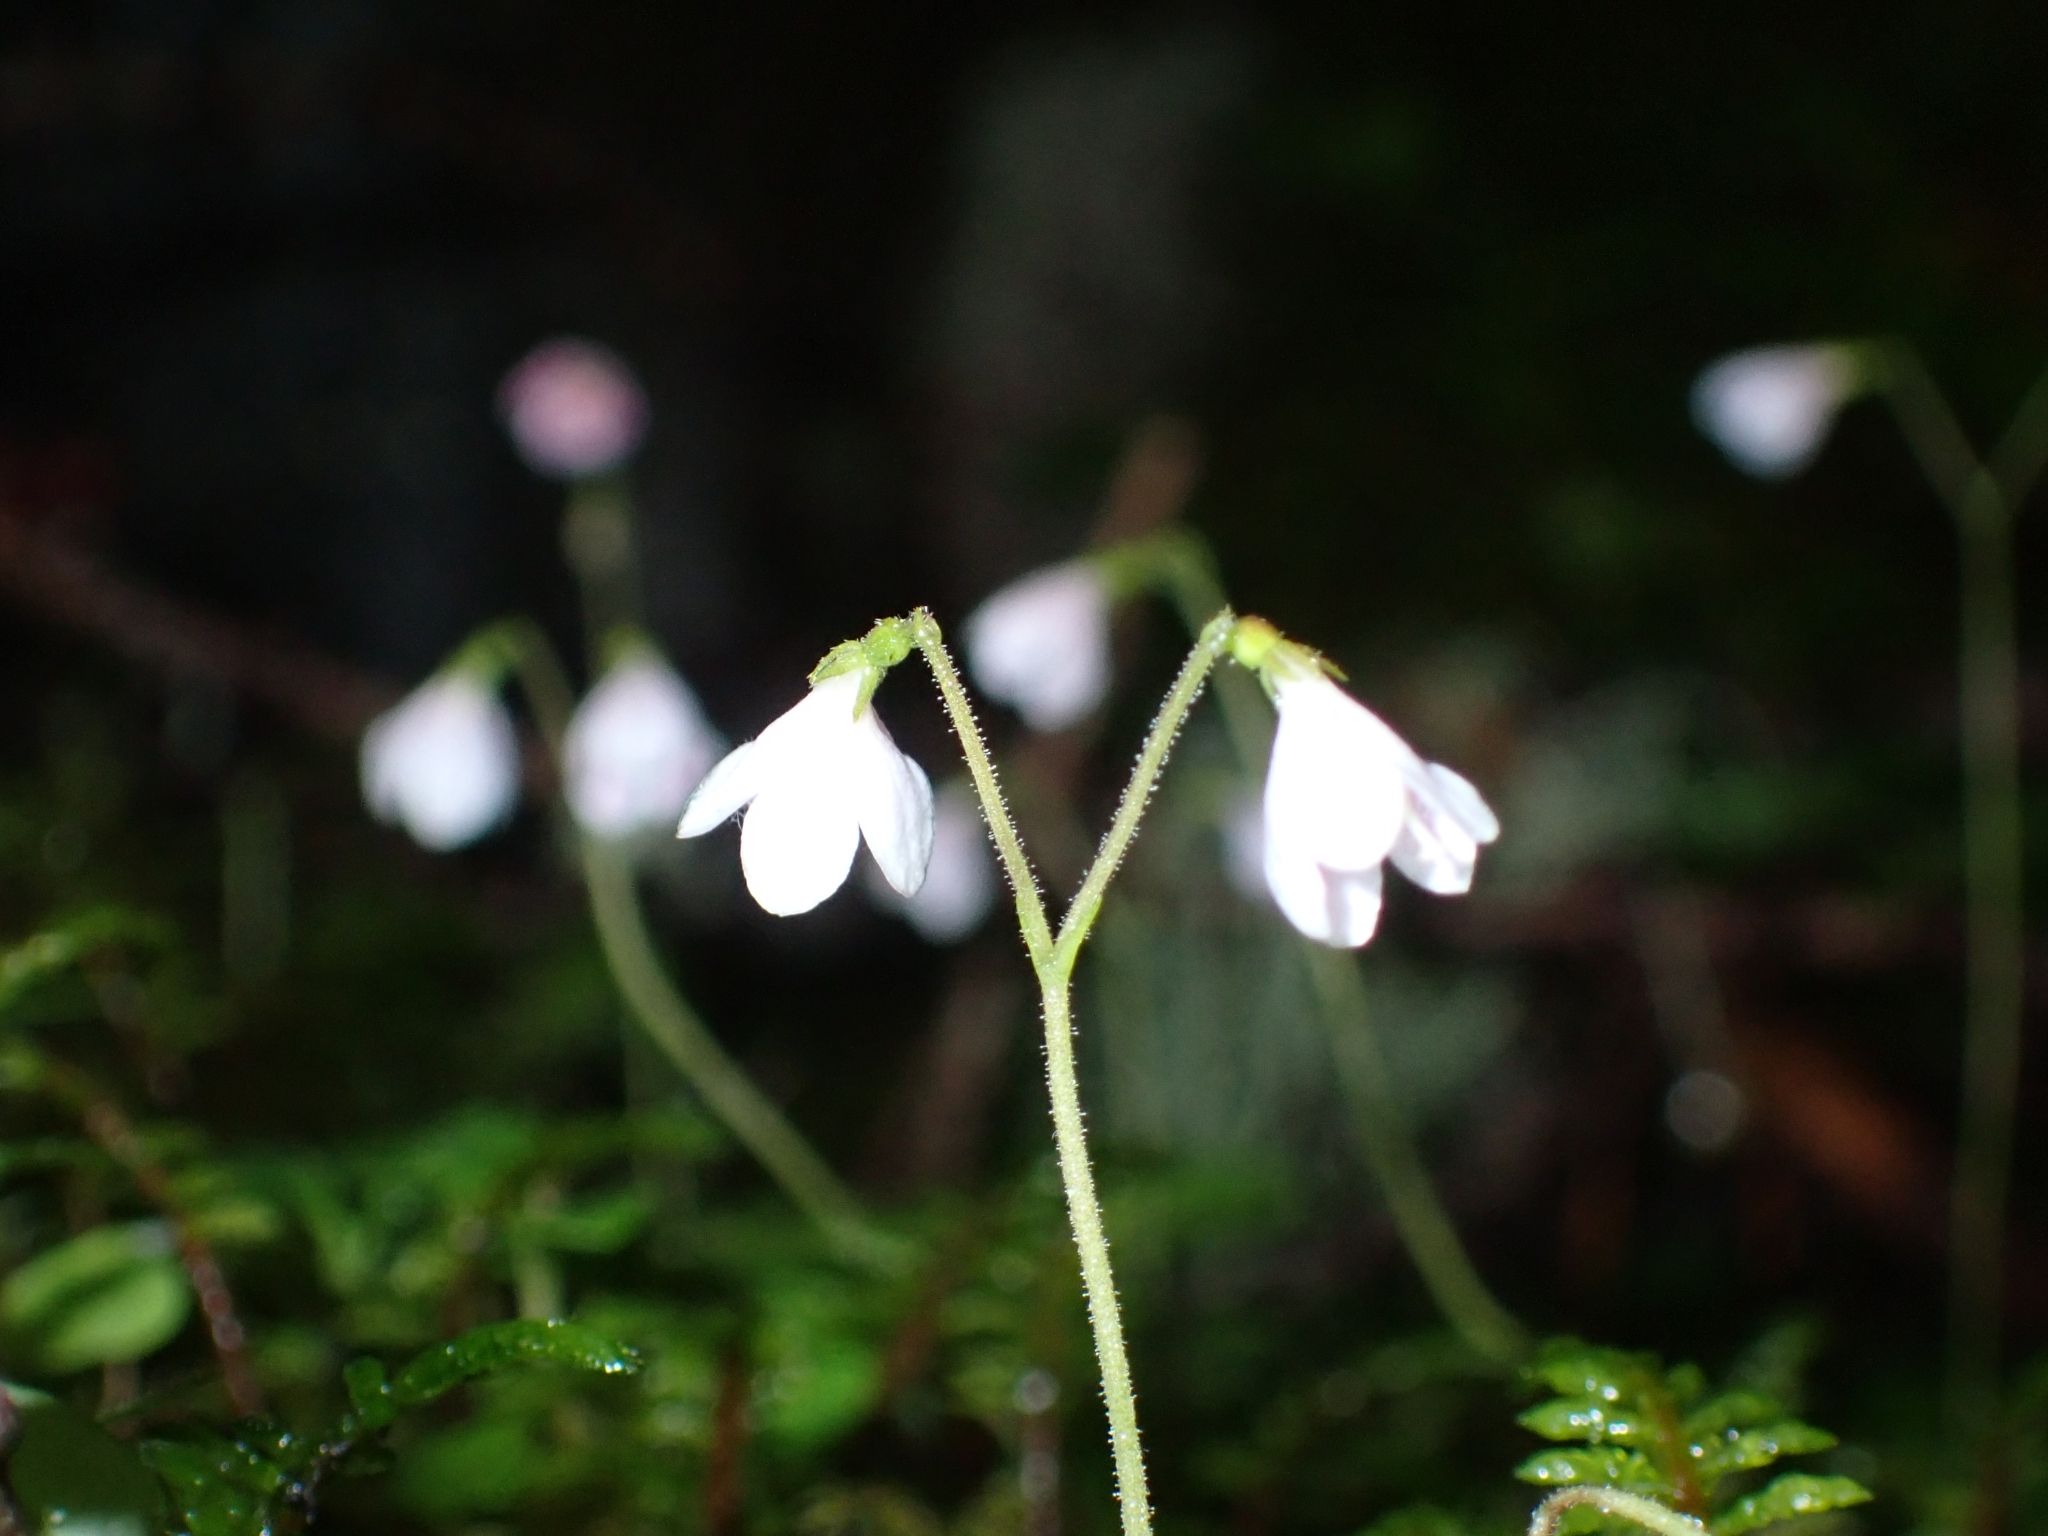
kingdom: Plantae
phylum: Tracheophyta
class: Magnoliopsida
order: Dipsacales
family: Caprifoliaceae
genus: Linnaea
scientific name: Linnaea borealis
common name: Twinflower
